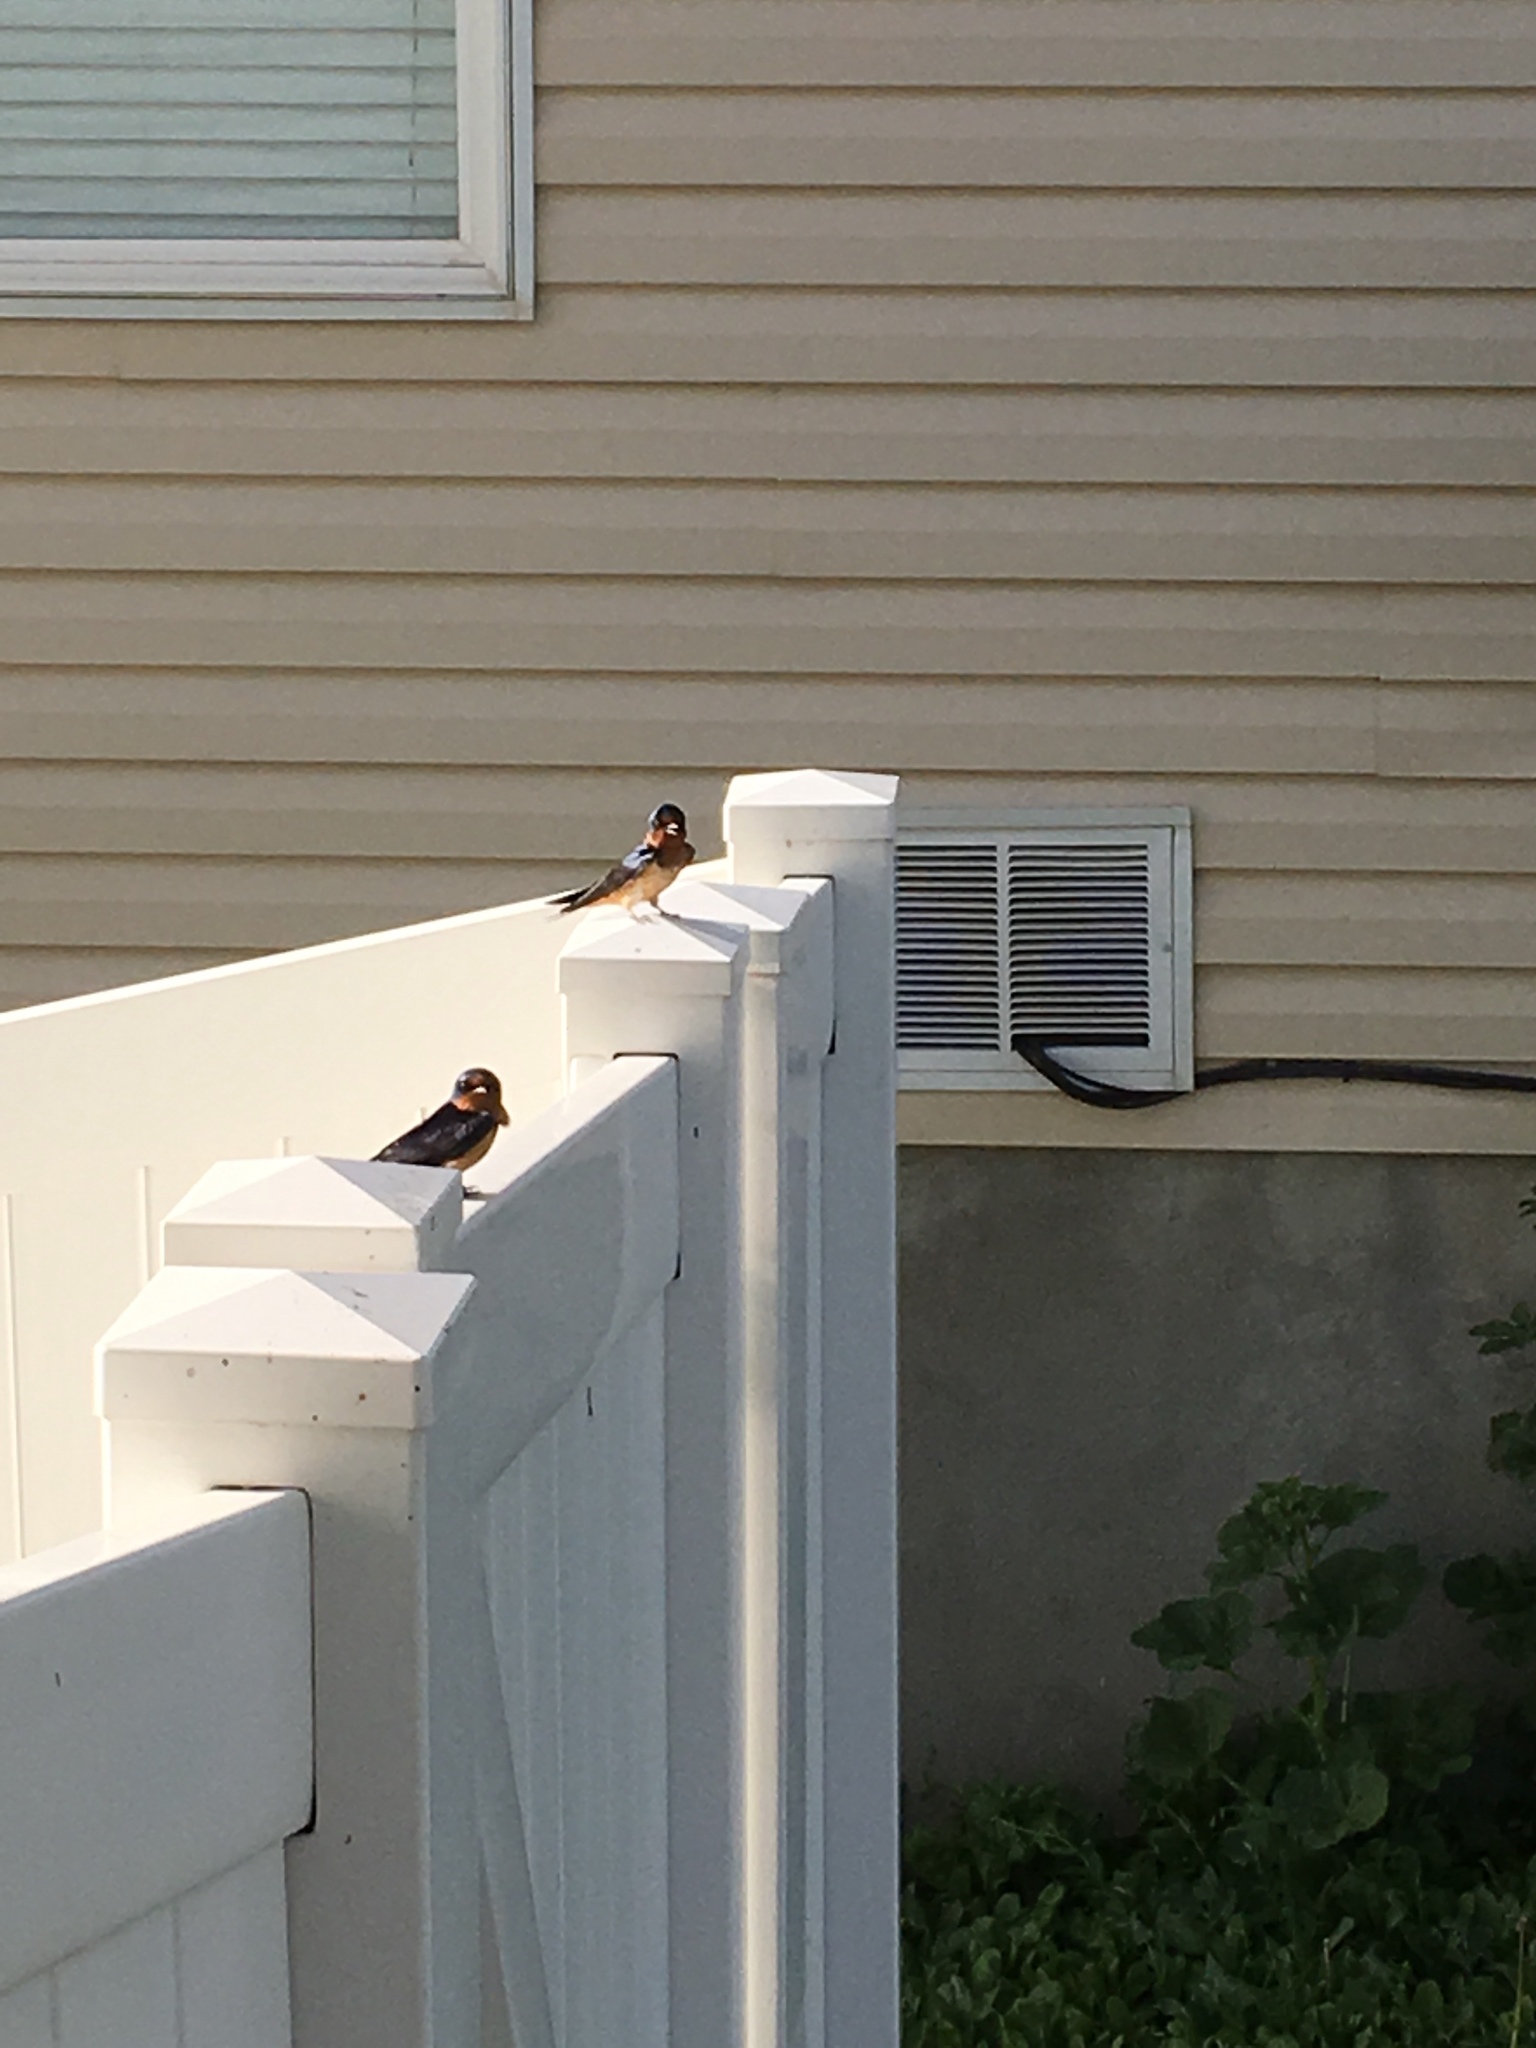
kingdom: Animalia
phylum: Chordata
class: Aves
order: Passeriformes
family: Hirundinidae
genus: Hirundo
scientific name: Hirundo rustica
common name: Barn swallow
